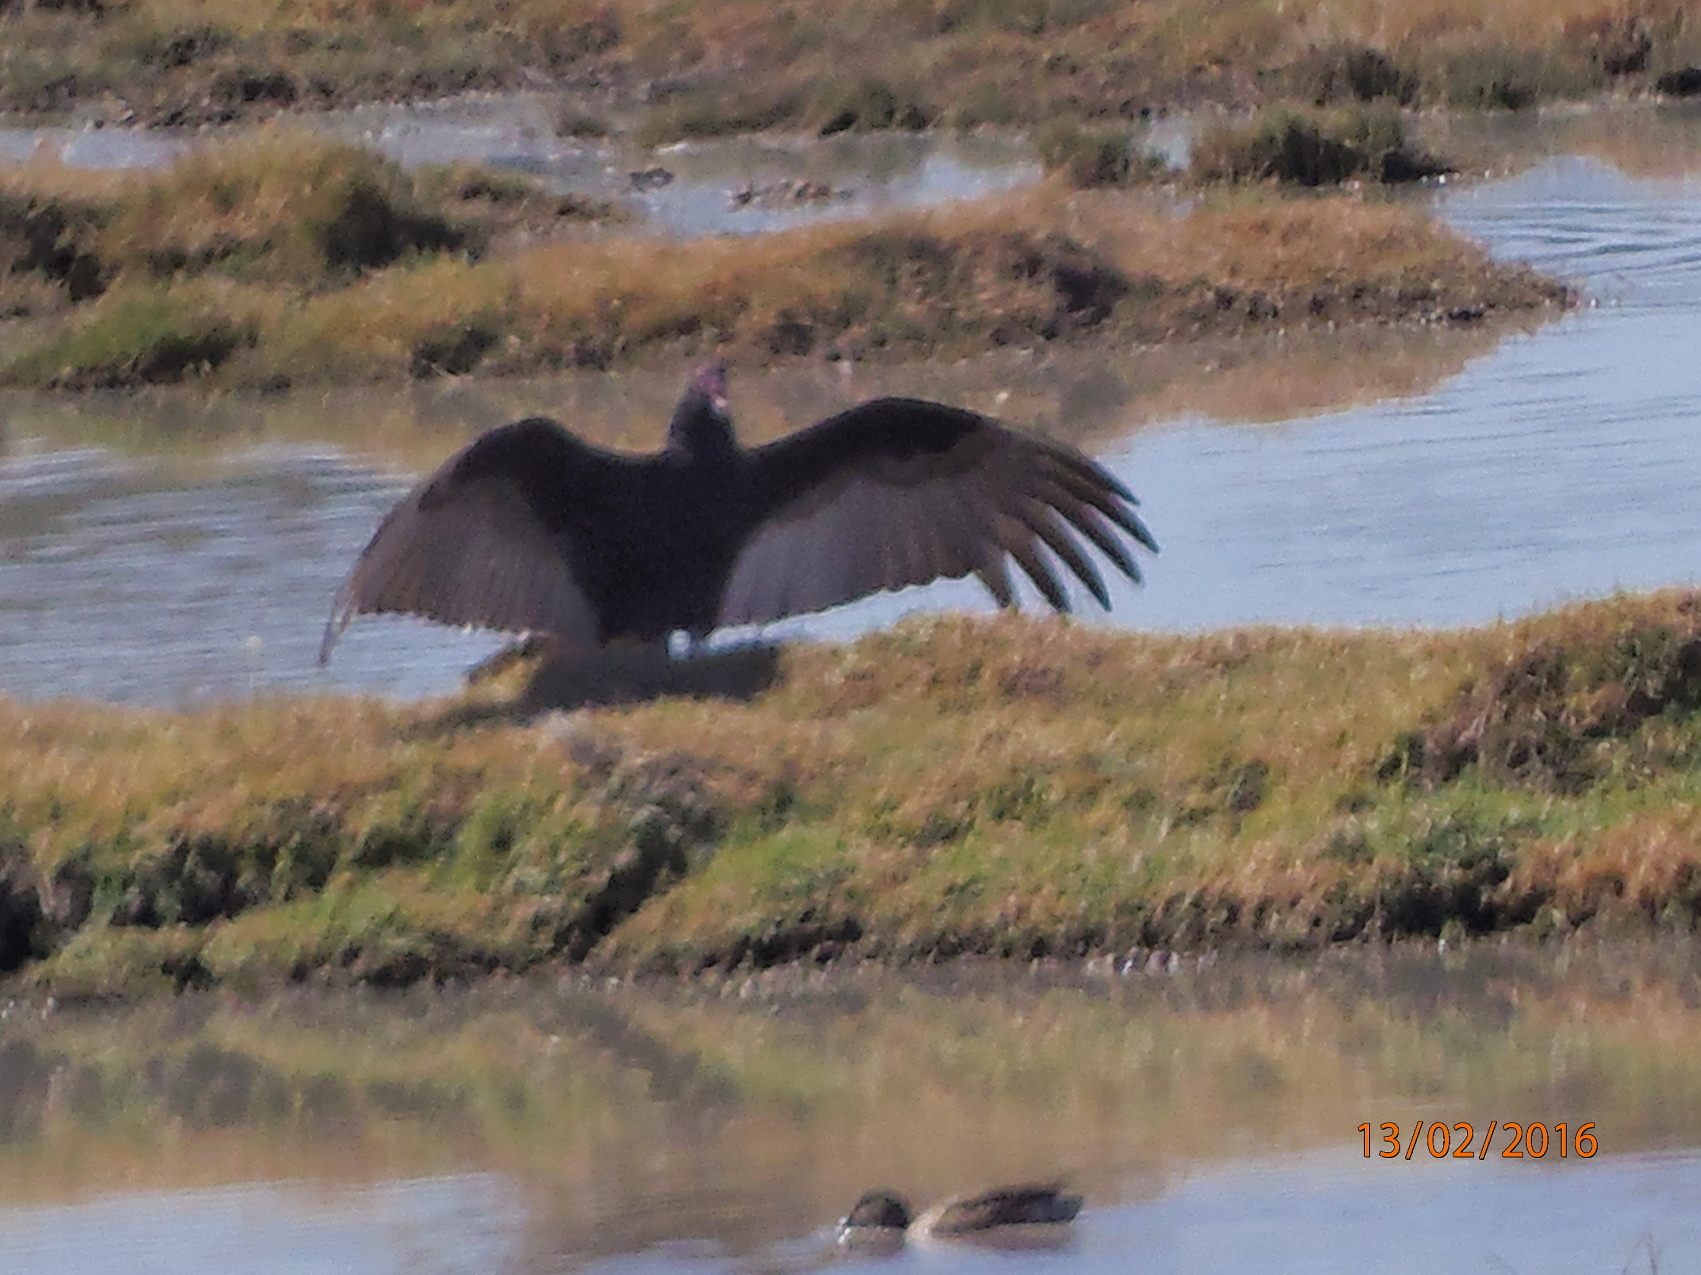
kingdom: Animalia
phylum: Chordata
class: Aves
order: Accipitriformes
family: Cathartidae
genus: Cathartes
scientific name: Cathartes aura
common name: Turkey vulture
